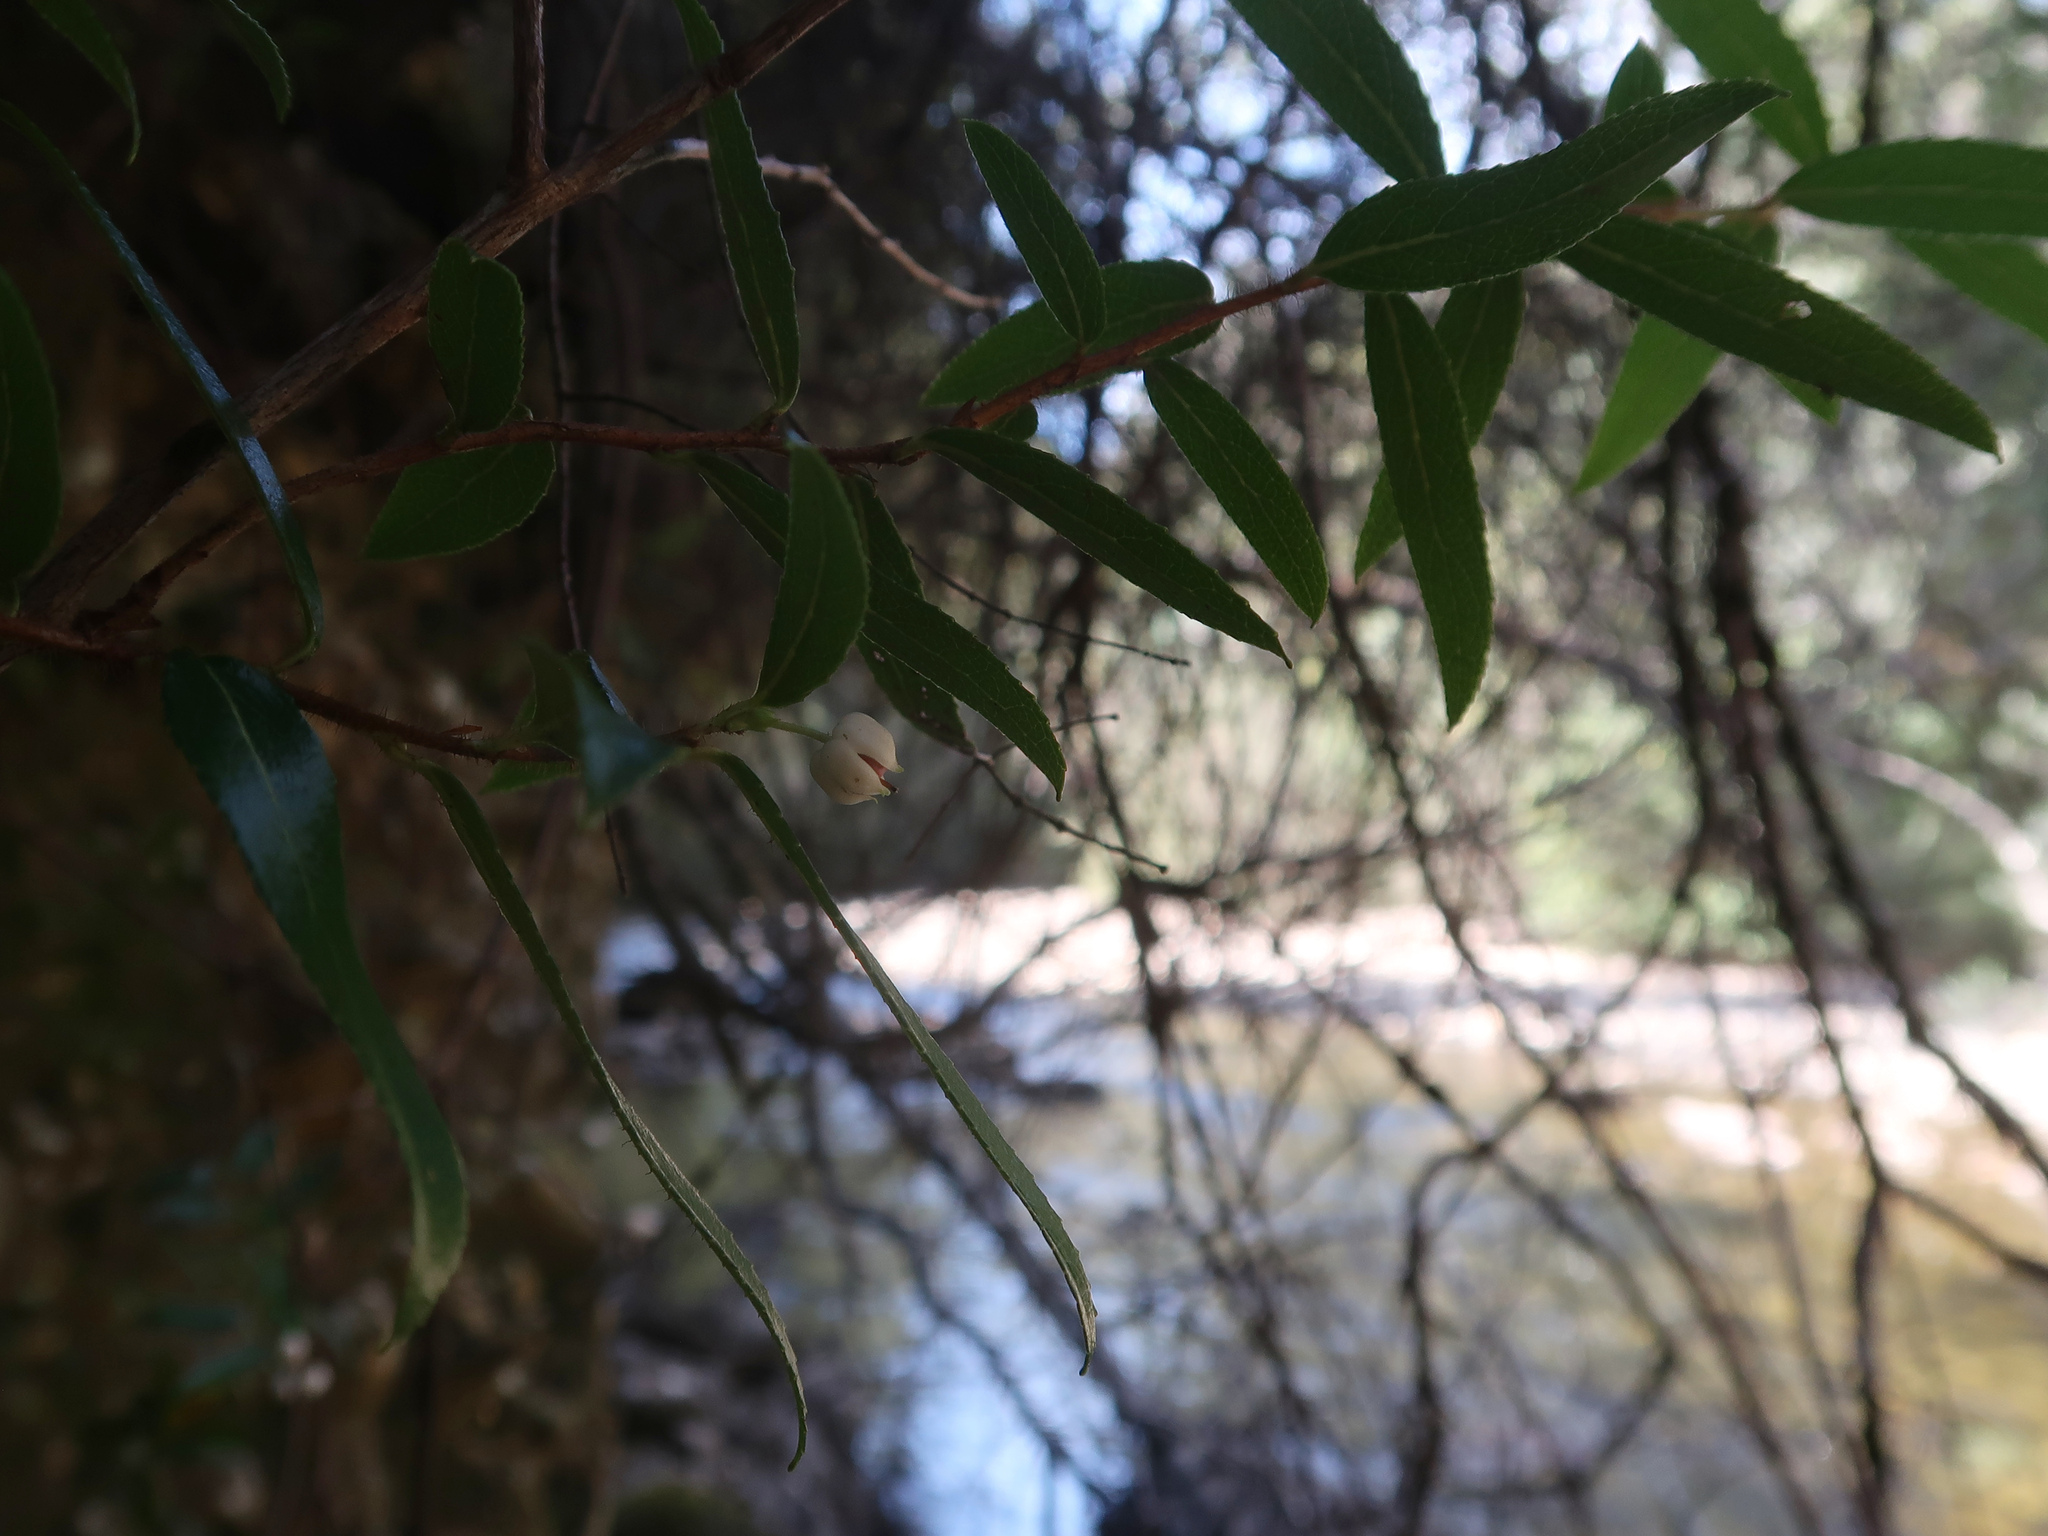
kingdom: Plantae
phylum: Tracheophyta
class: Magnoliopsida
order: Ericales
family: Ericaceae
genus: Gaultheria
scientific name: Gaultheria hispida
